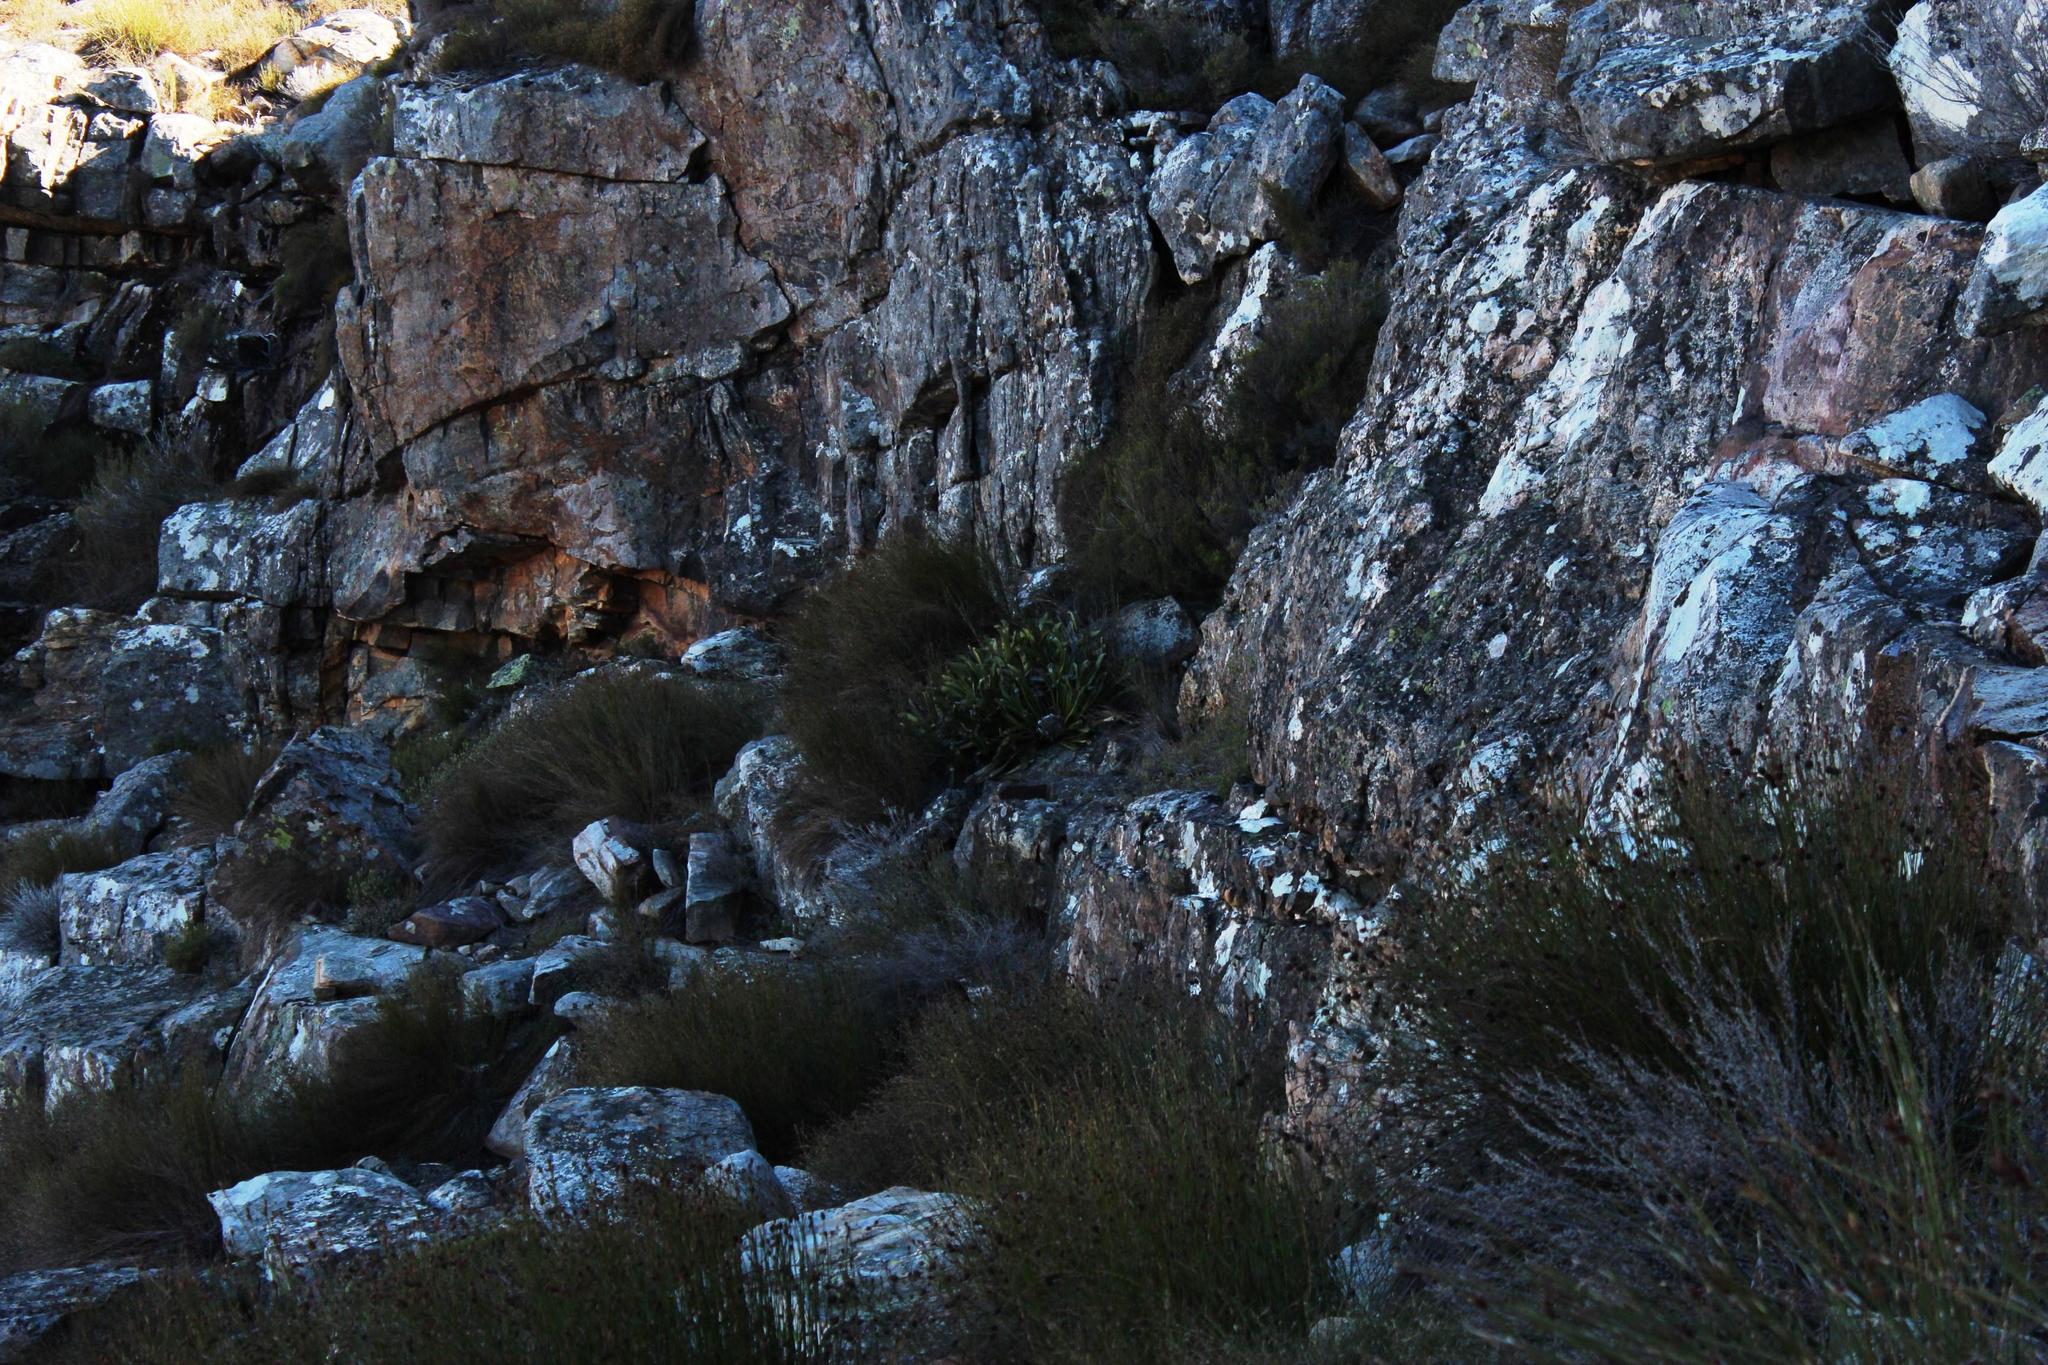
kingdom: Plantae
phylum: Tracheophyta
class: Magnoliopsida
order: Proteales
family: Proteaceae
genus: Protea
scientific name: Protea cryophila
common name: Snow protea
